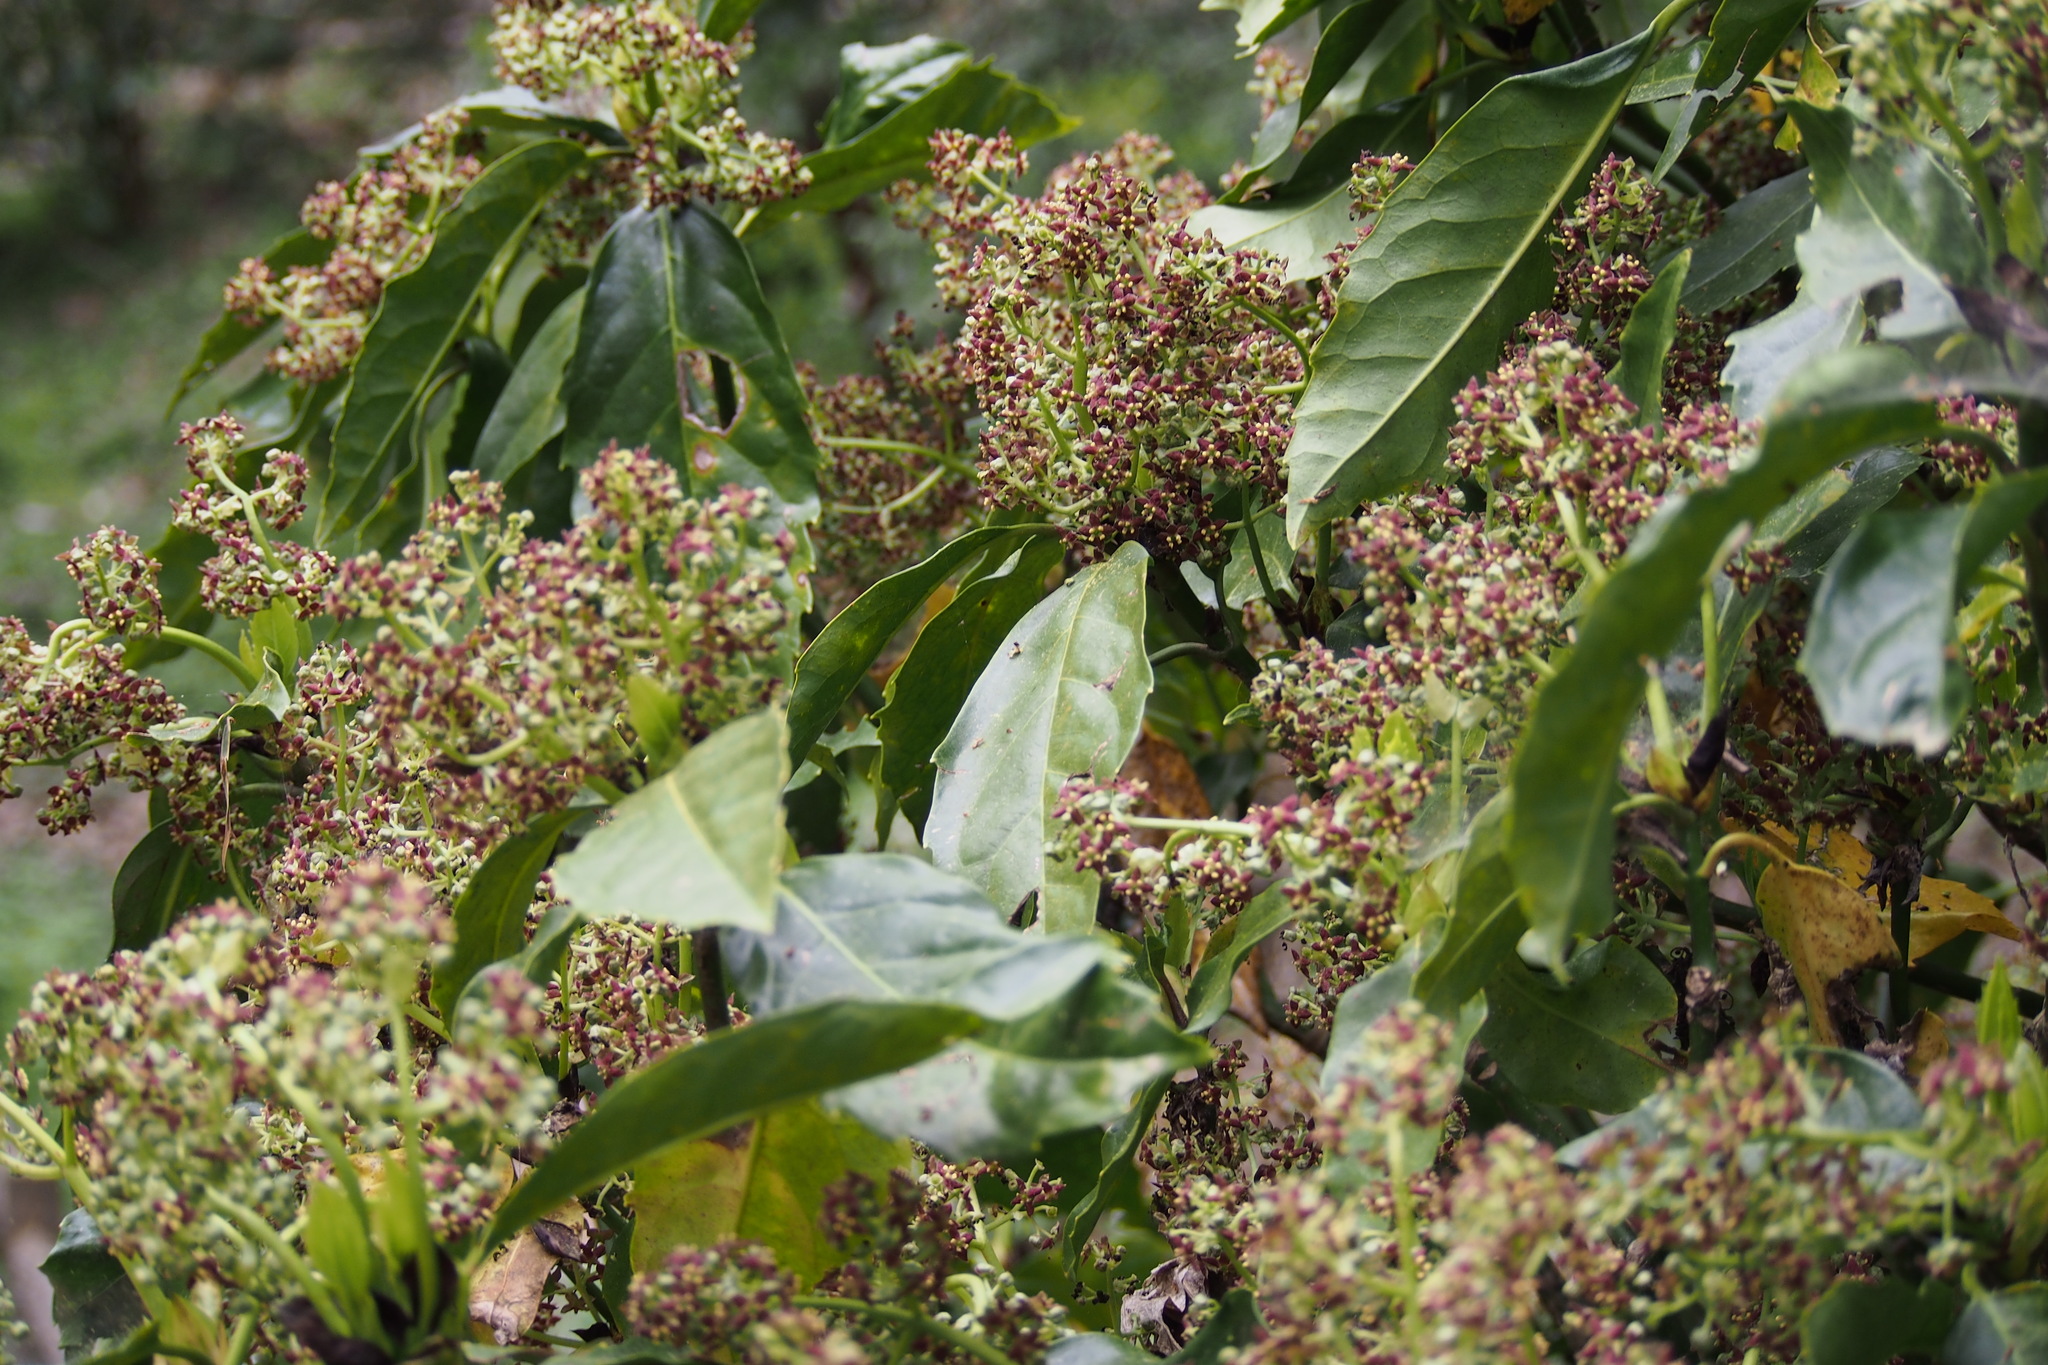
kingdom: Plantae
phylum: Tracheophyta
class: Magnoliopsida
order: Garryales
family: Garryaceae
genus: Aucuba
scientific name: Aucuba japonica
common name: Spotted-laurel
